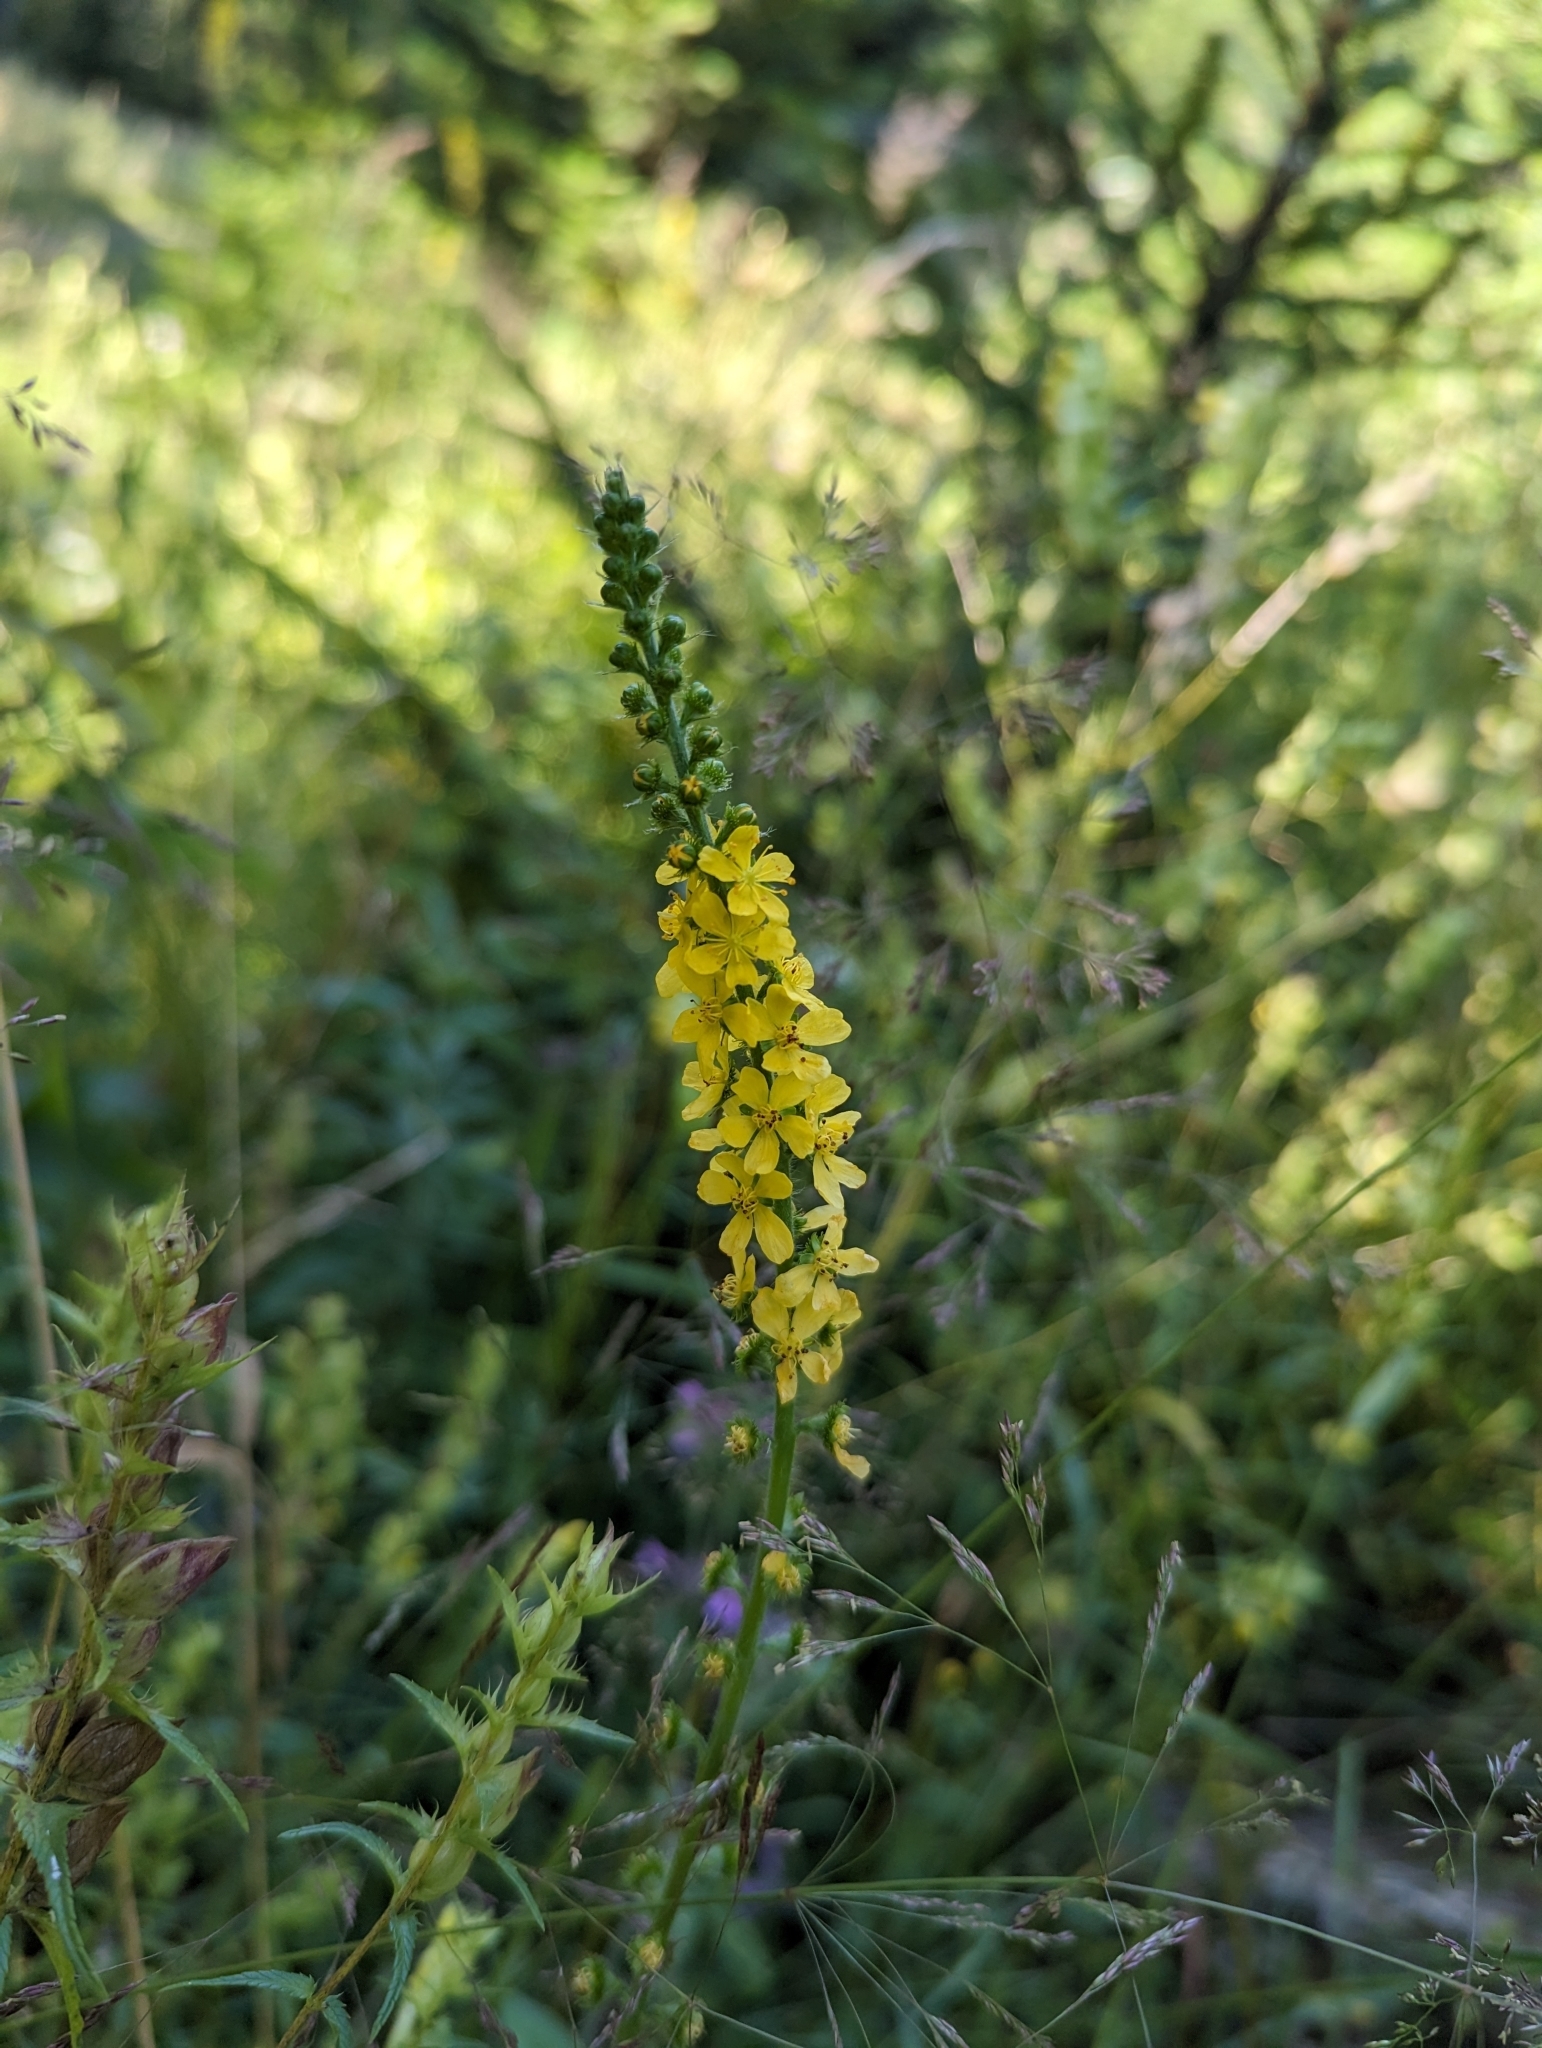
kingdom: Plantae
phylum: Tracheophyta
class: Magnoliopsida
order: Rosales
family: Rosaceae
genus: Agrimonia
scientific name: Agrimonia eupatoria
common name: Agrimony
